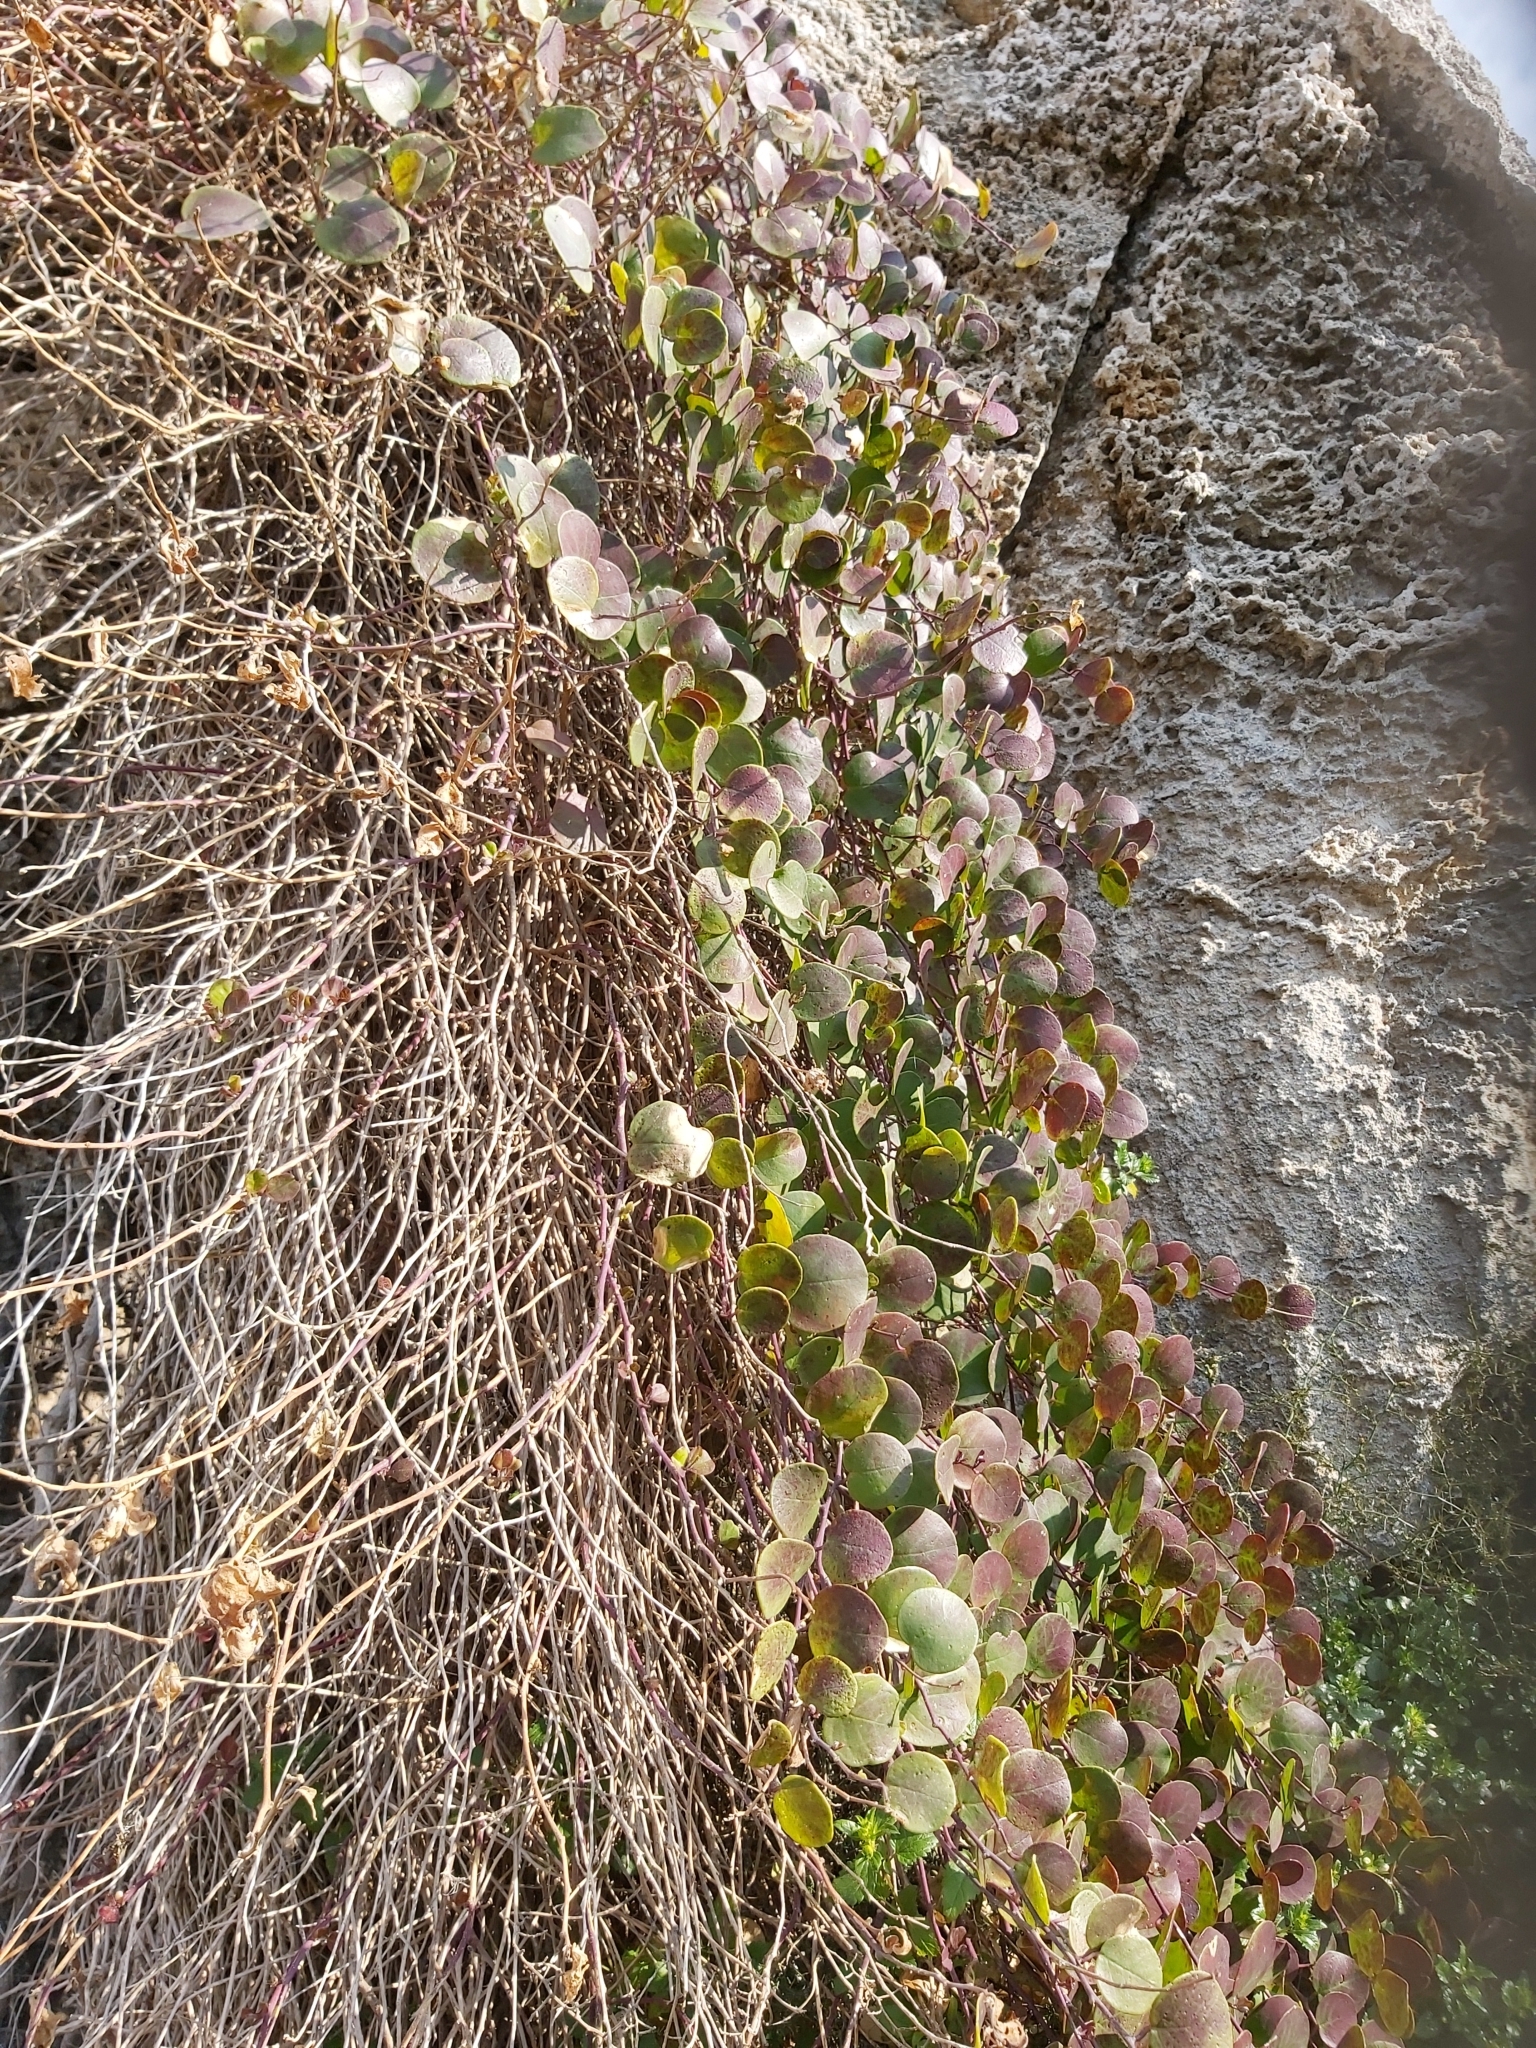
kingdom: Plantae
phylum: Tracheophyta
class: Magnoliopsida
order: Brassicales
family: Capparaceae
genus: Capparis
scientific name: Capparis orientalis
